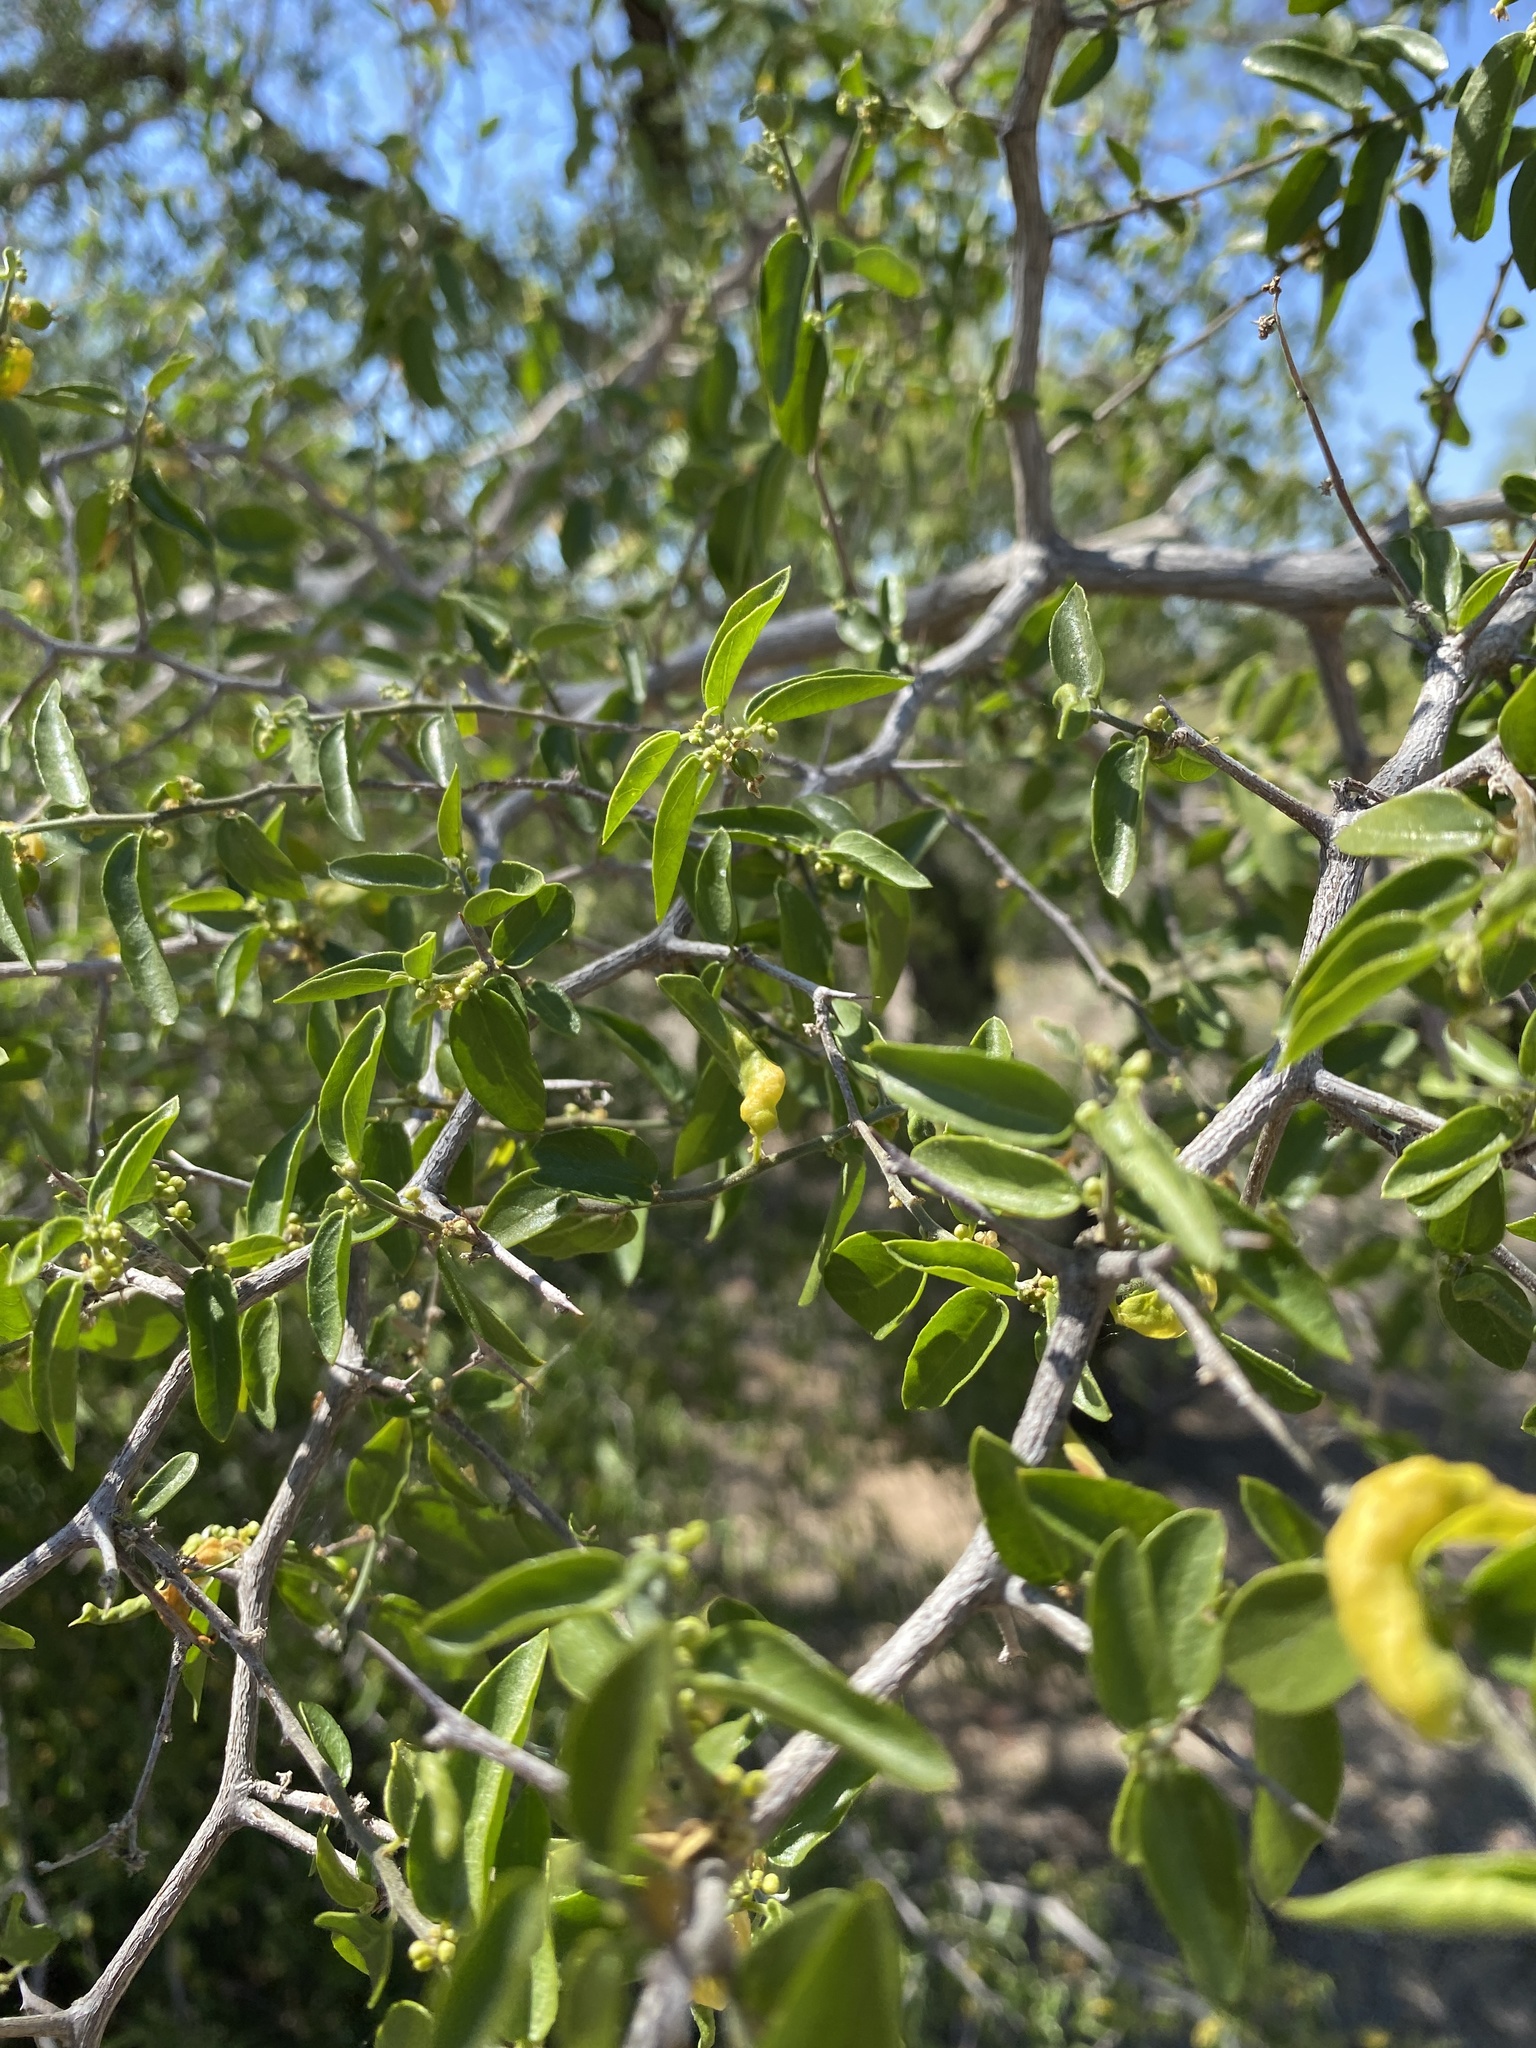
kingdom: Plantae
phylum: Tracheophyta
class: Magnoliopsida
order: Rosales
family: Cannabaceae
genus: Celtis
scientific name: Celtis pallida
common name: Desert hackberry
